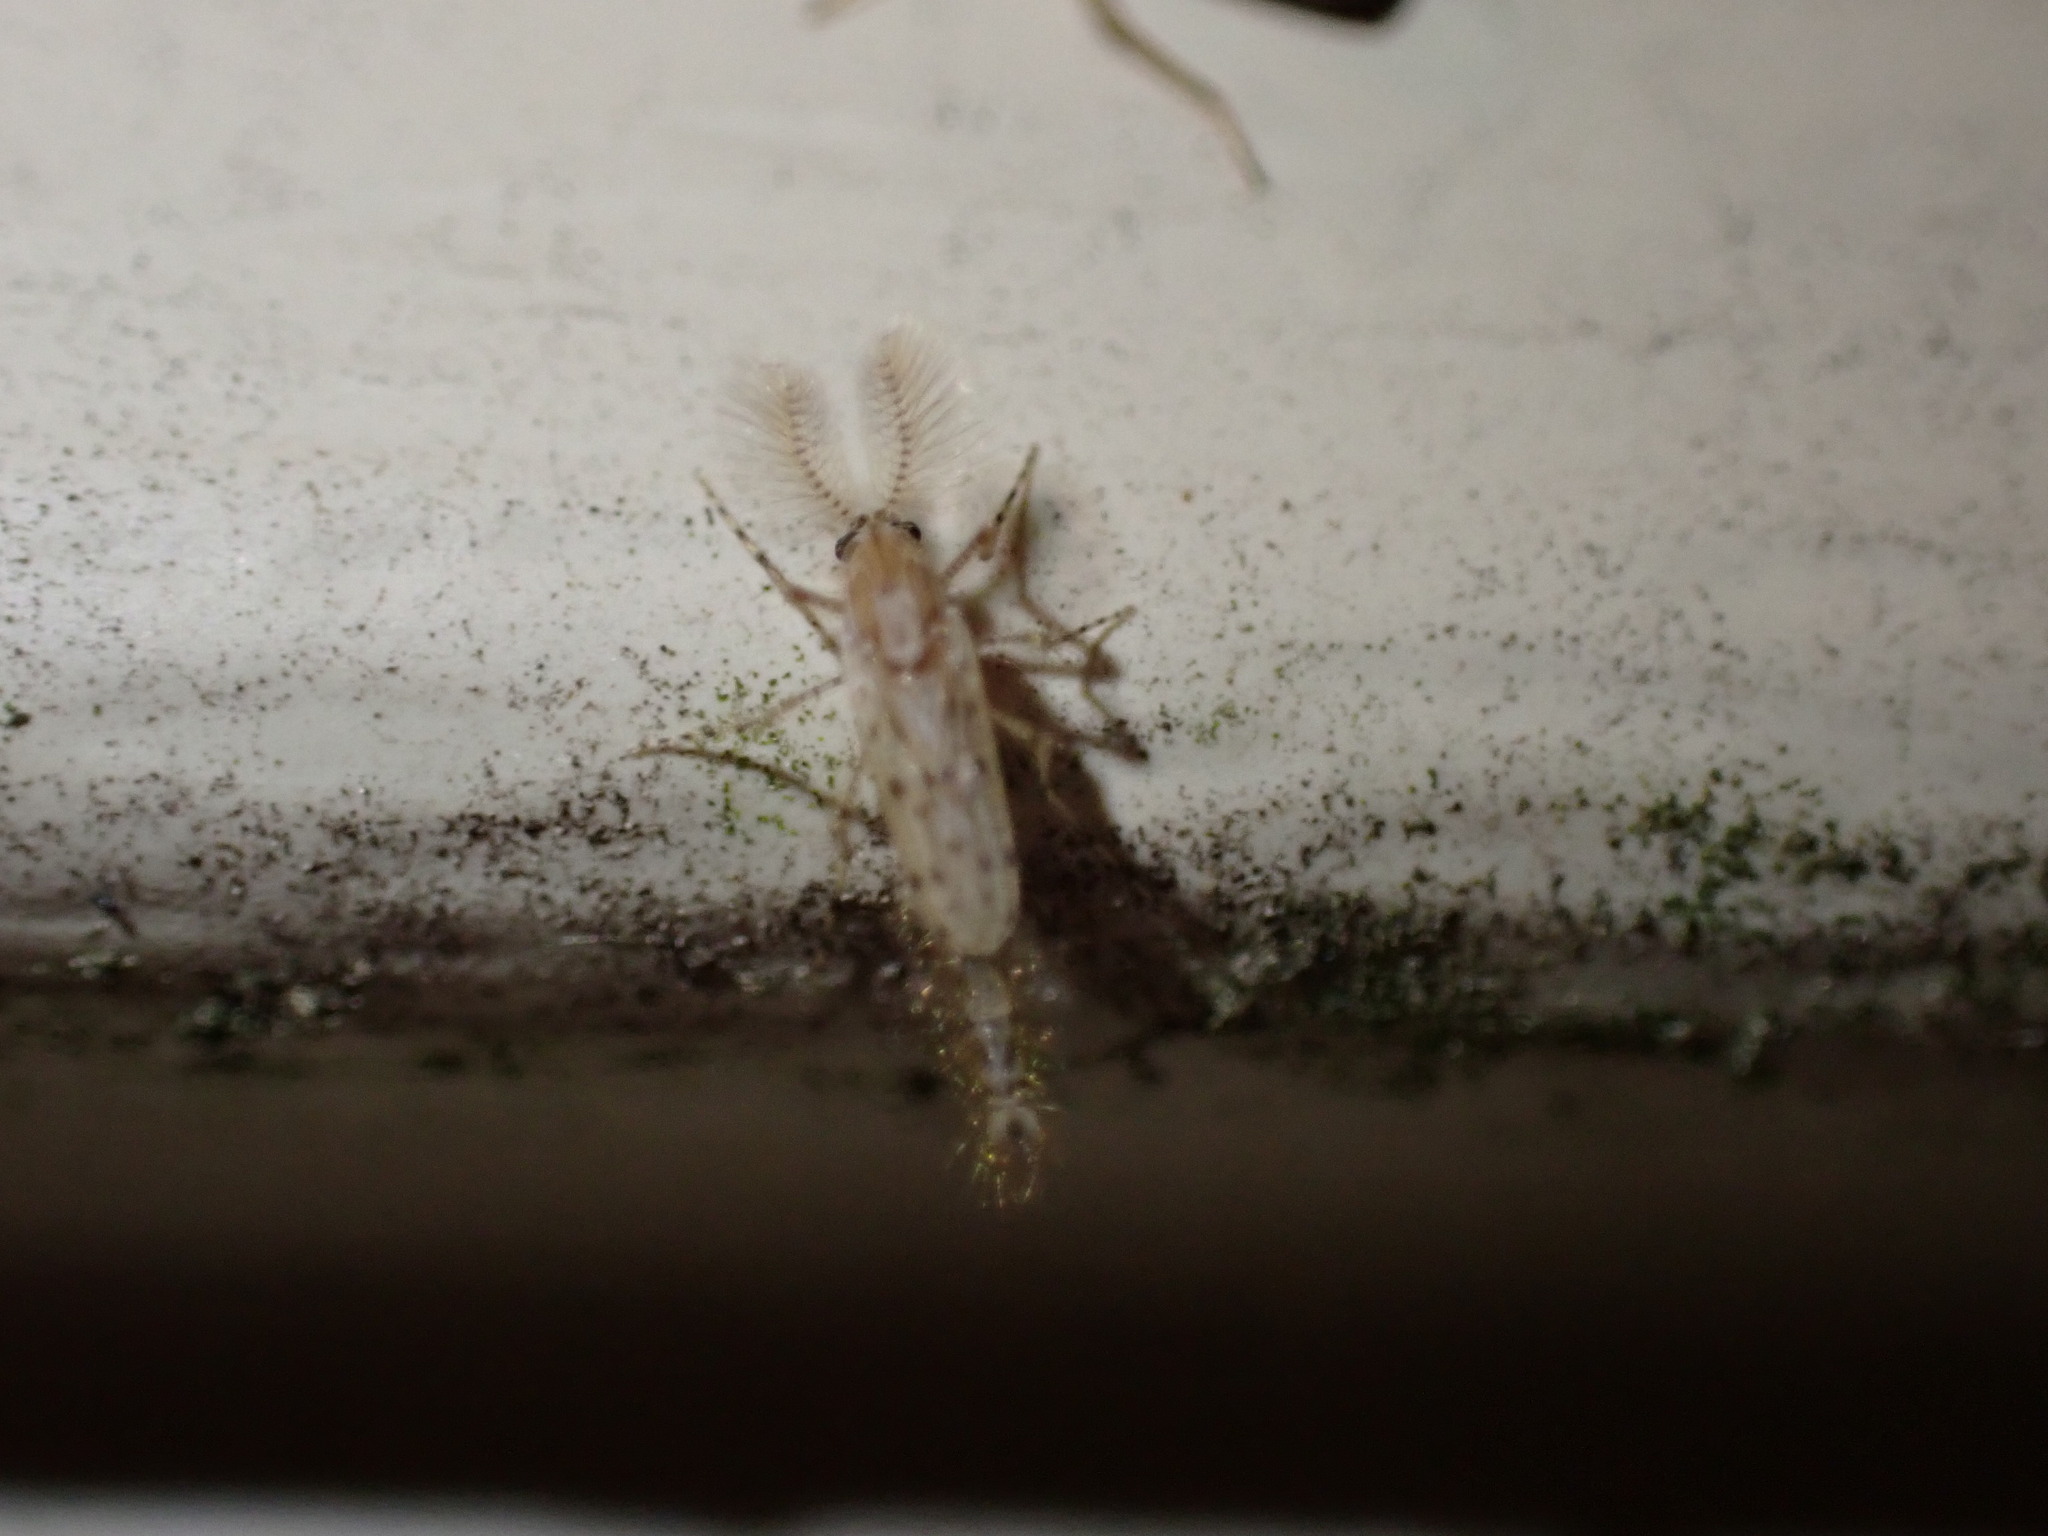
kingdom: Animalia
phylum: Arthropoda
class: Insecta
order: Diptera
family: Chaoboridae
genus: Chaoborus
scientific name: Chaoborus punctipennis
